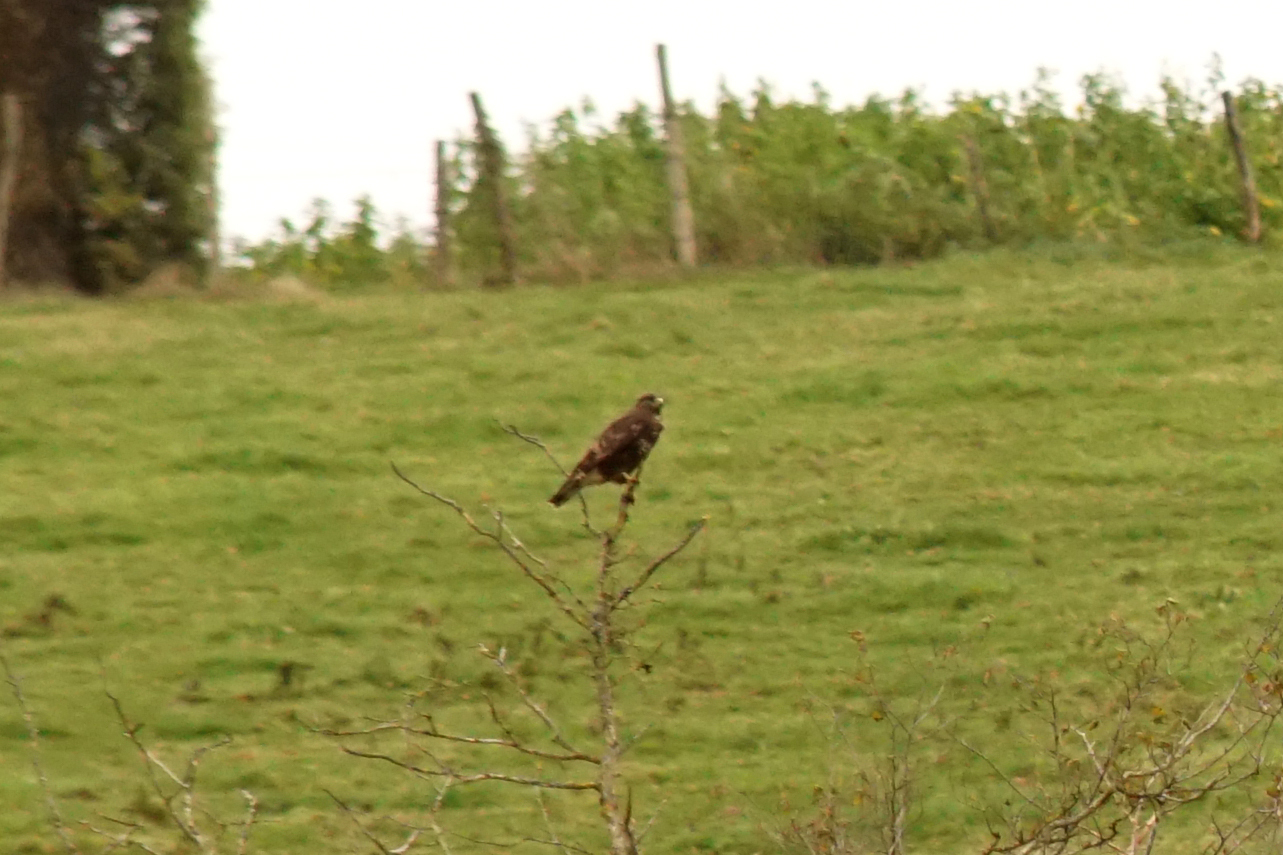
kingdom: Animalia
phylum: Chordata
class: Aves
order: Accipitriformes
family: Accipitridae
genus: Buteo
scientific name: Buteo buteo
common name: Common buzzard
